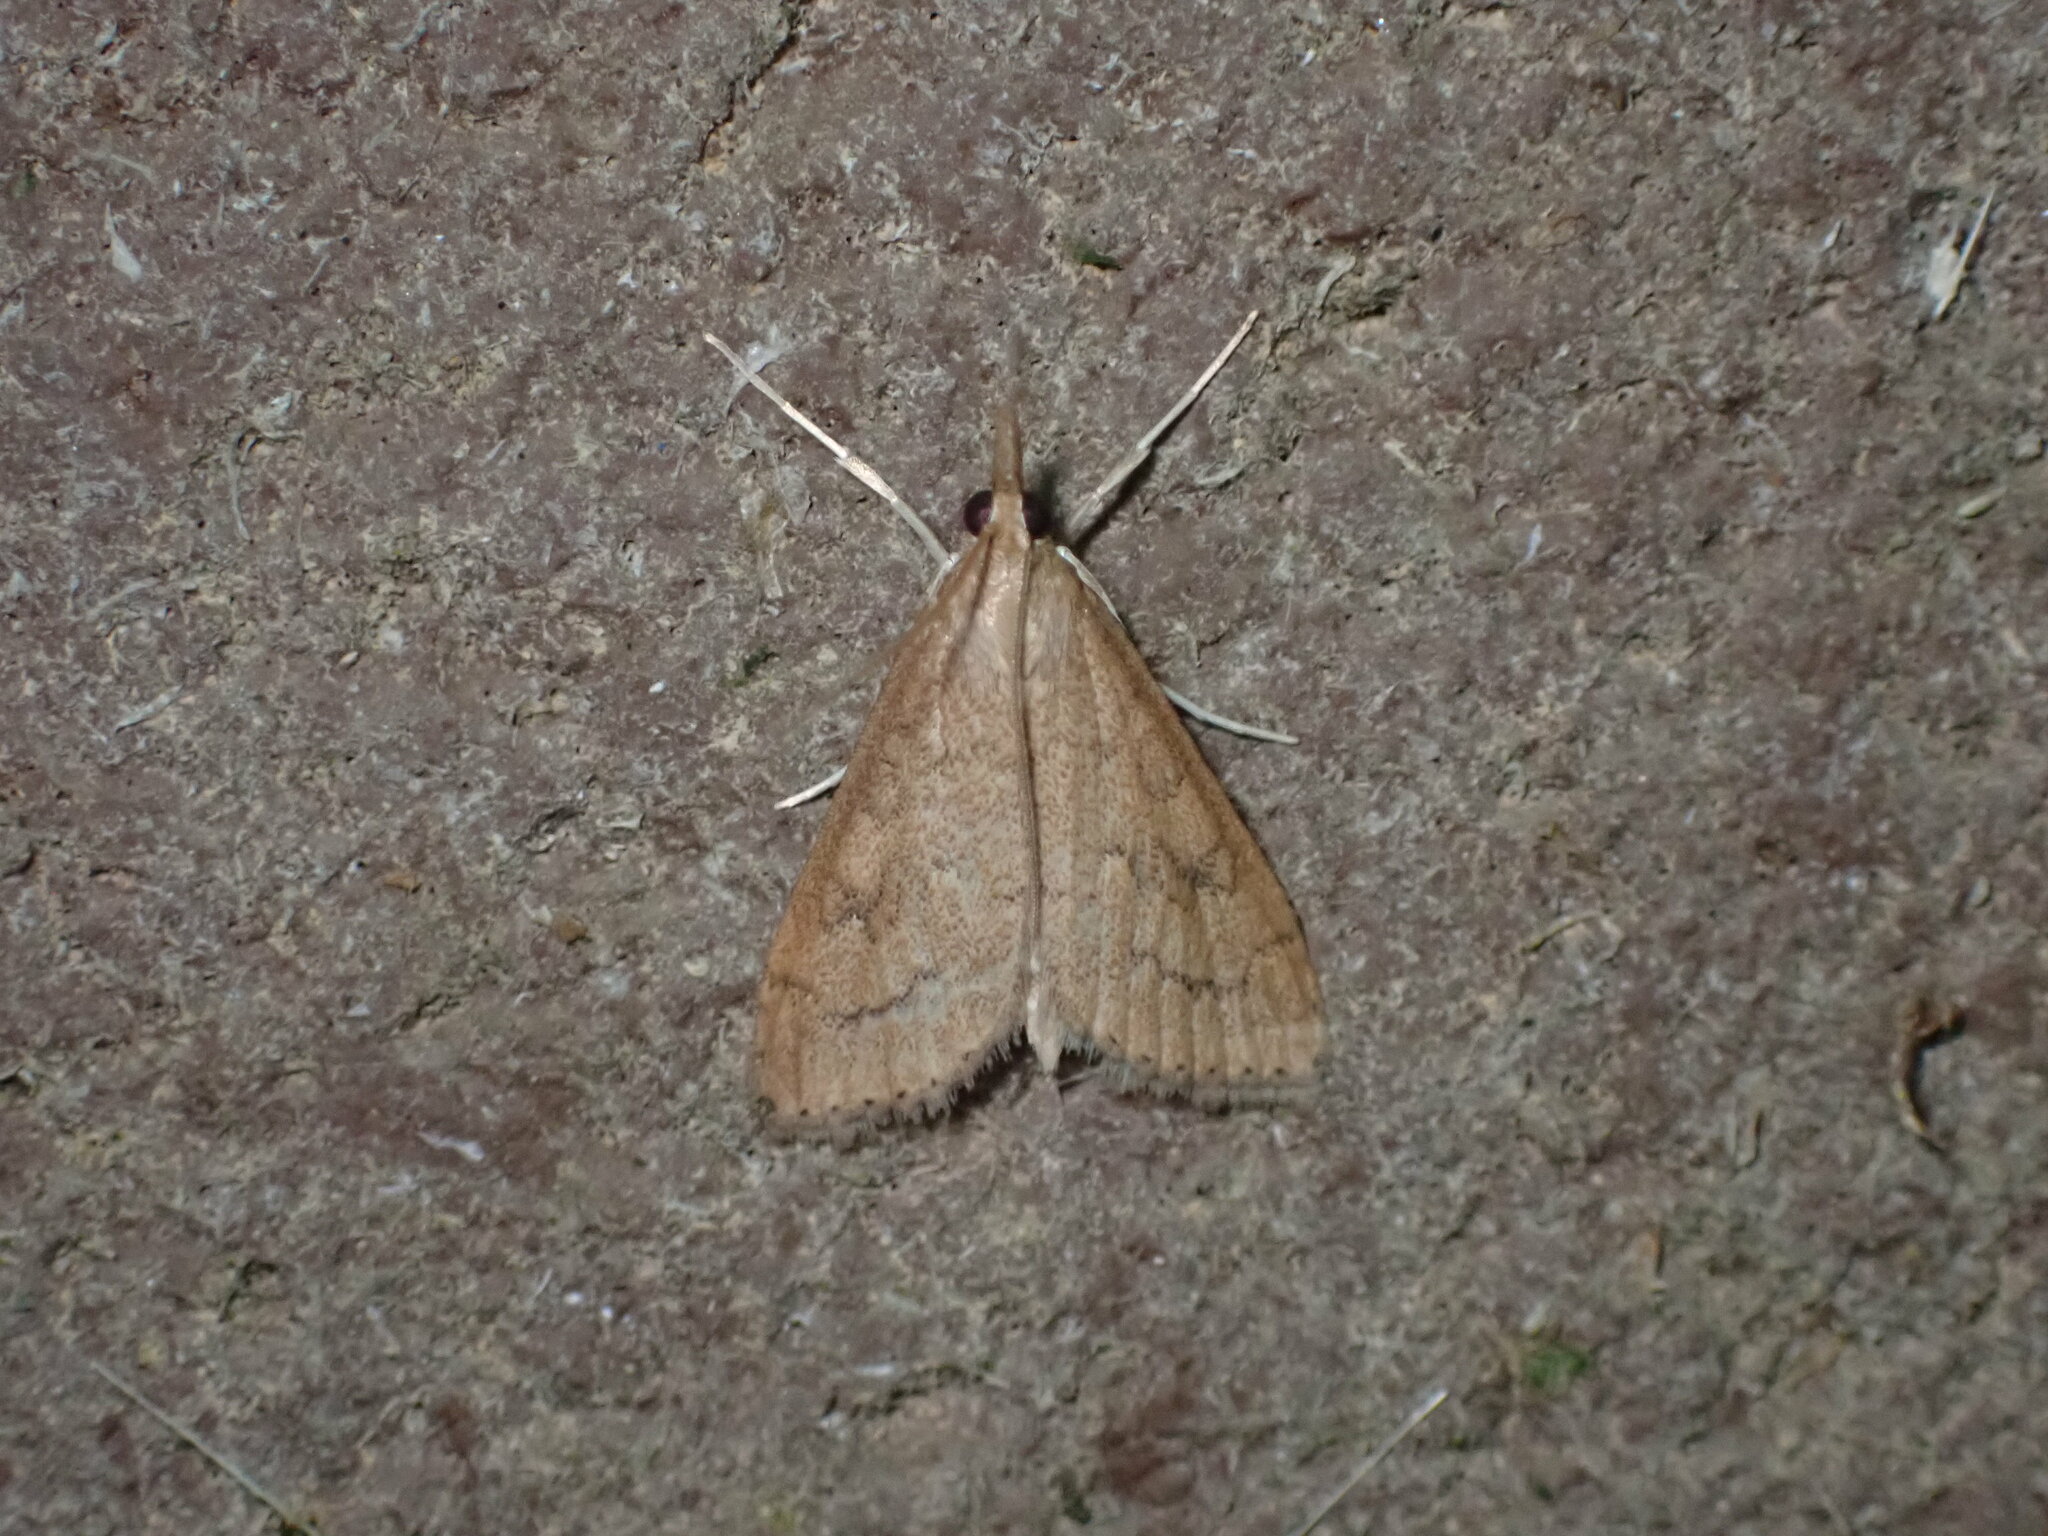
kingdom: Animalia
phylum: Arthropoda
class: Insecta
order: Lepidoptera
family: Crambidae
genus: Udea
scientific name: Udea rubigalis
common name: Celery leaftier moth
